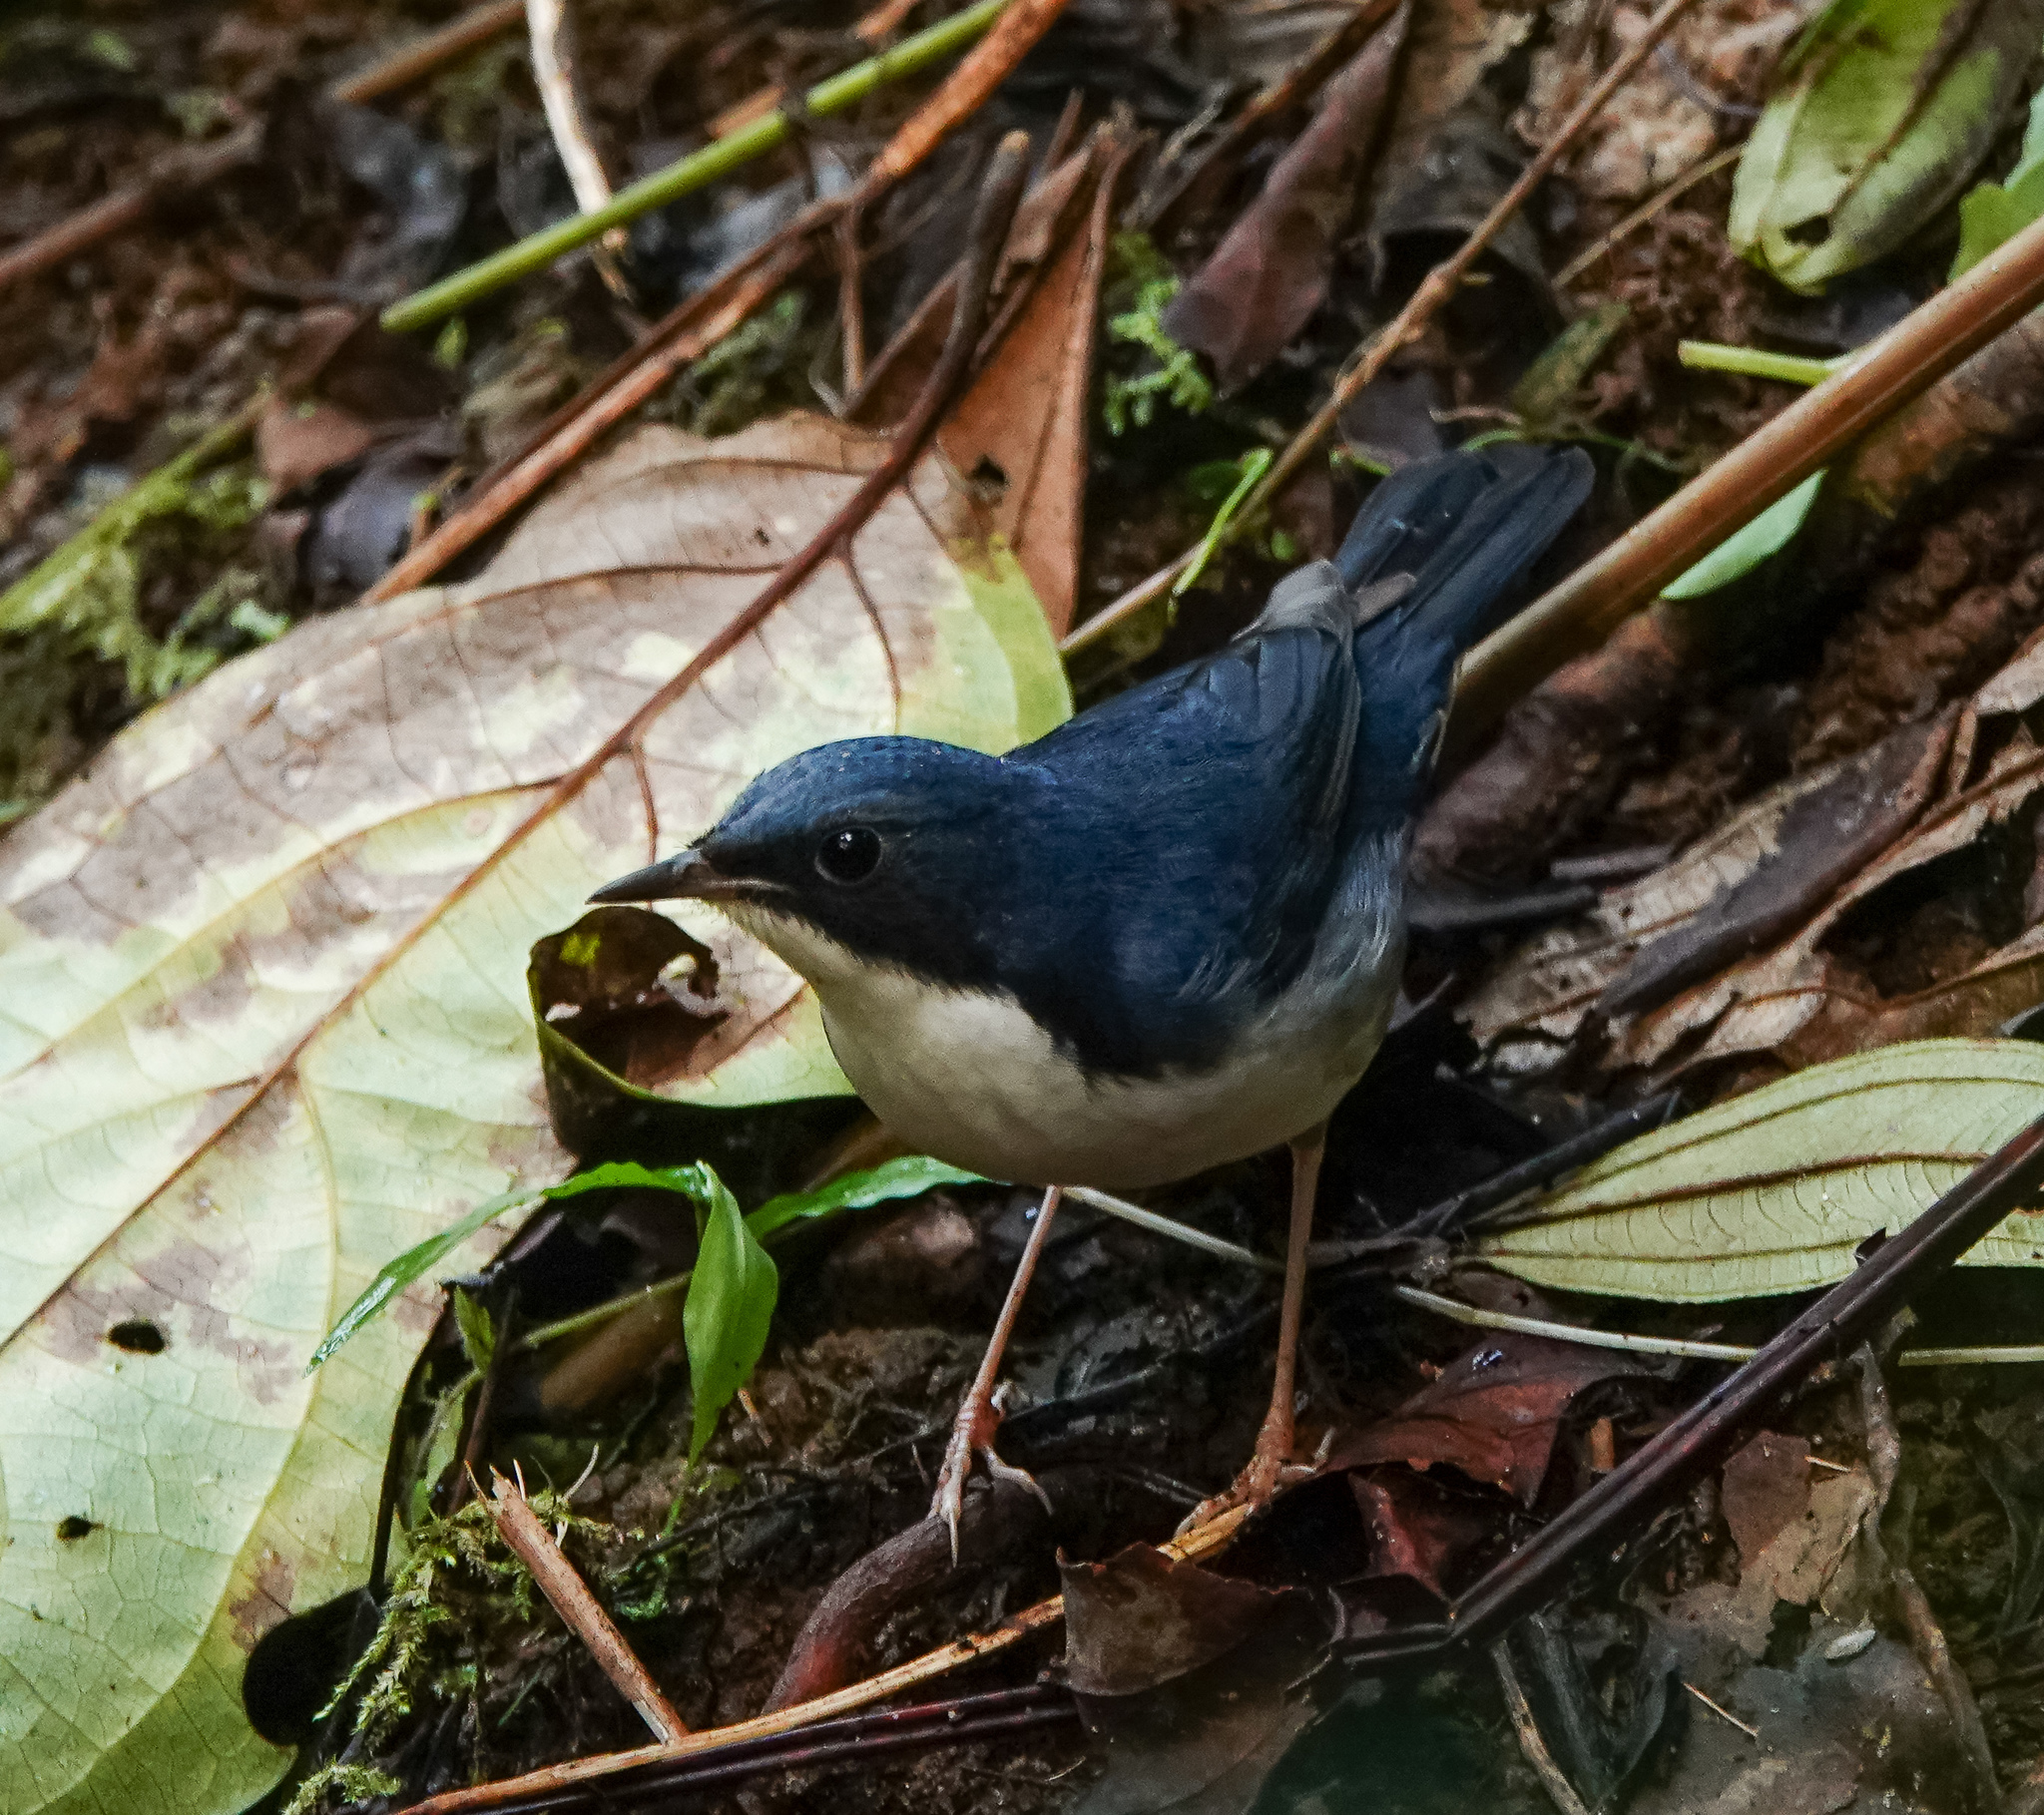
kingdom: Animalia
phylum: Chordata
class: Aves
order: Passeriformes
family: Muscicapidae
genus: Luscinia
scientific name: Luscinia cyane
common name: Siberian blue robin
